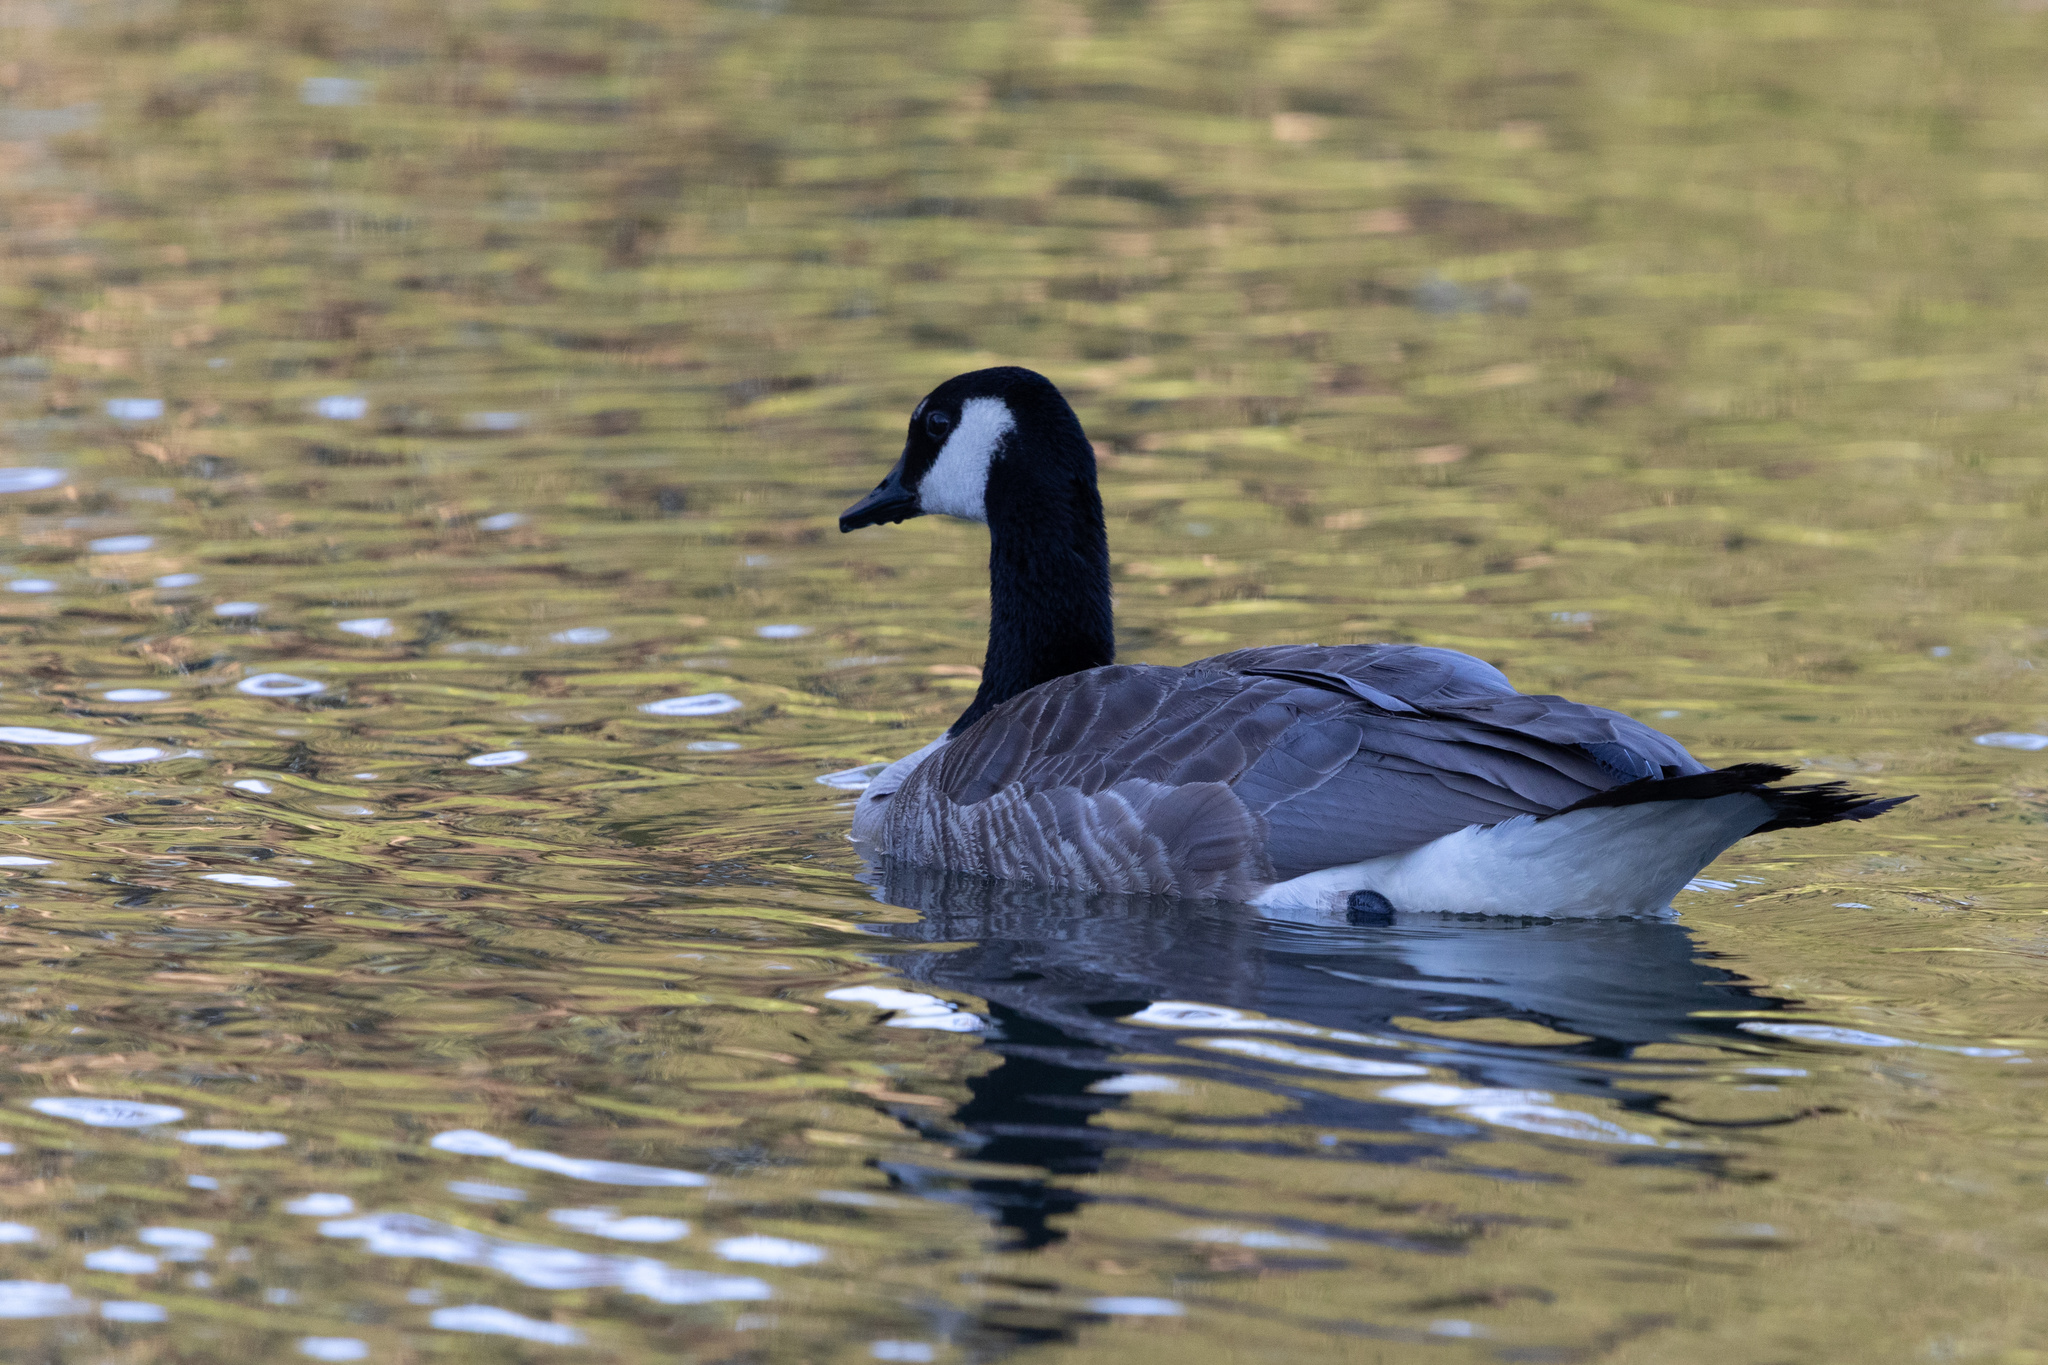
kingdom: Animalia
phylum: Chordata
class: Aves
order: Anseriformes
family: Anatidae
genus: Branta
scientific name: Branta canadensis
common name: Canada goose
